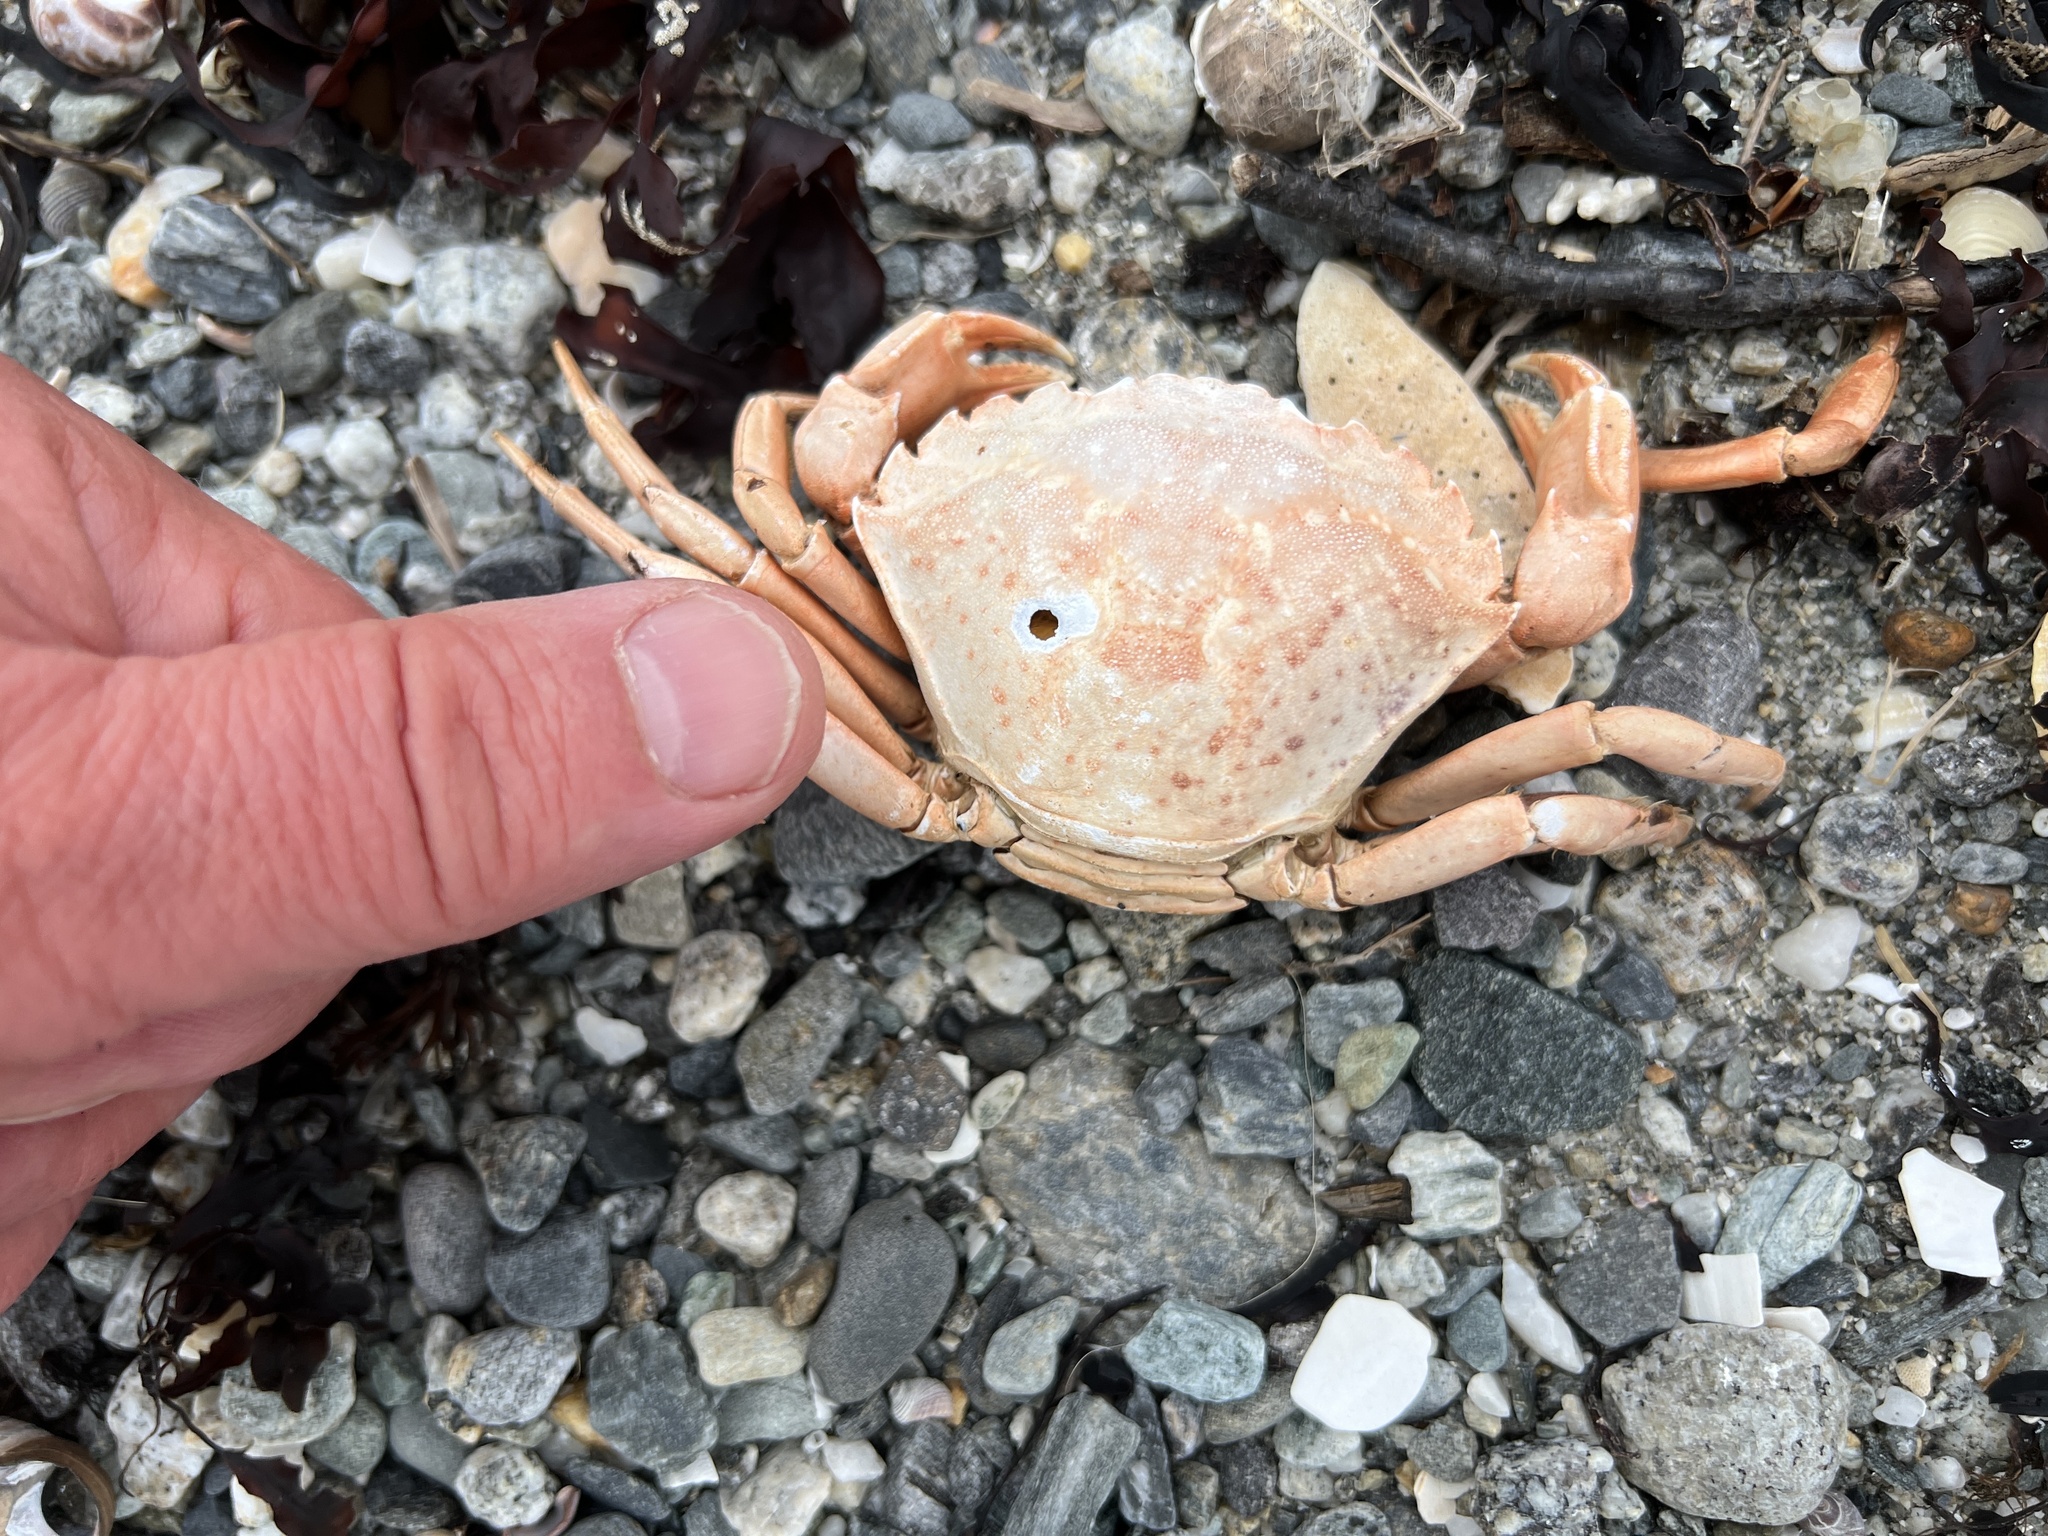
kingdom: Animalia
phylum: Arthropoda
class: Malacostraca
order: Decapoda
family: Carcinidae
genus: Carcinus
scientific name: Carcinus maenas
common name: European green crab
